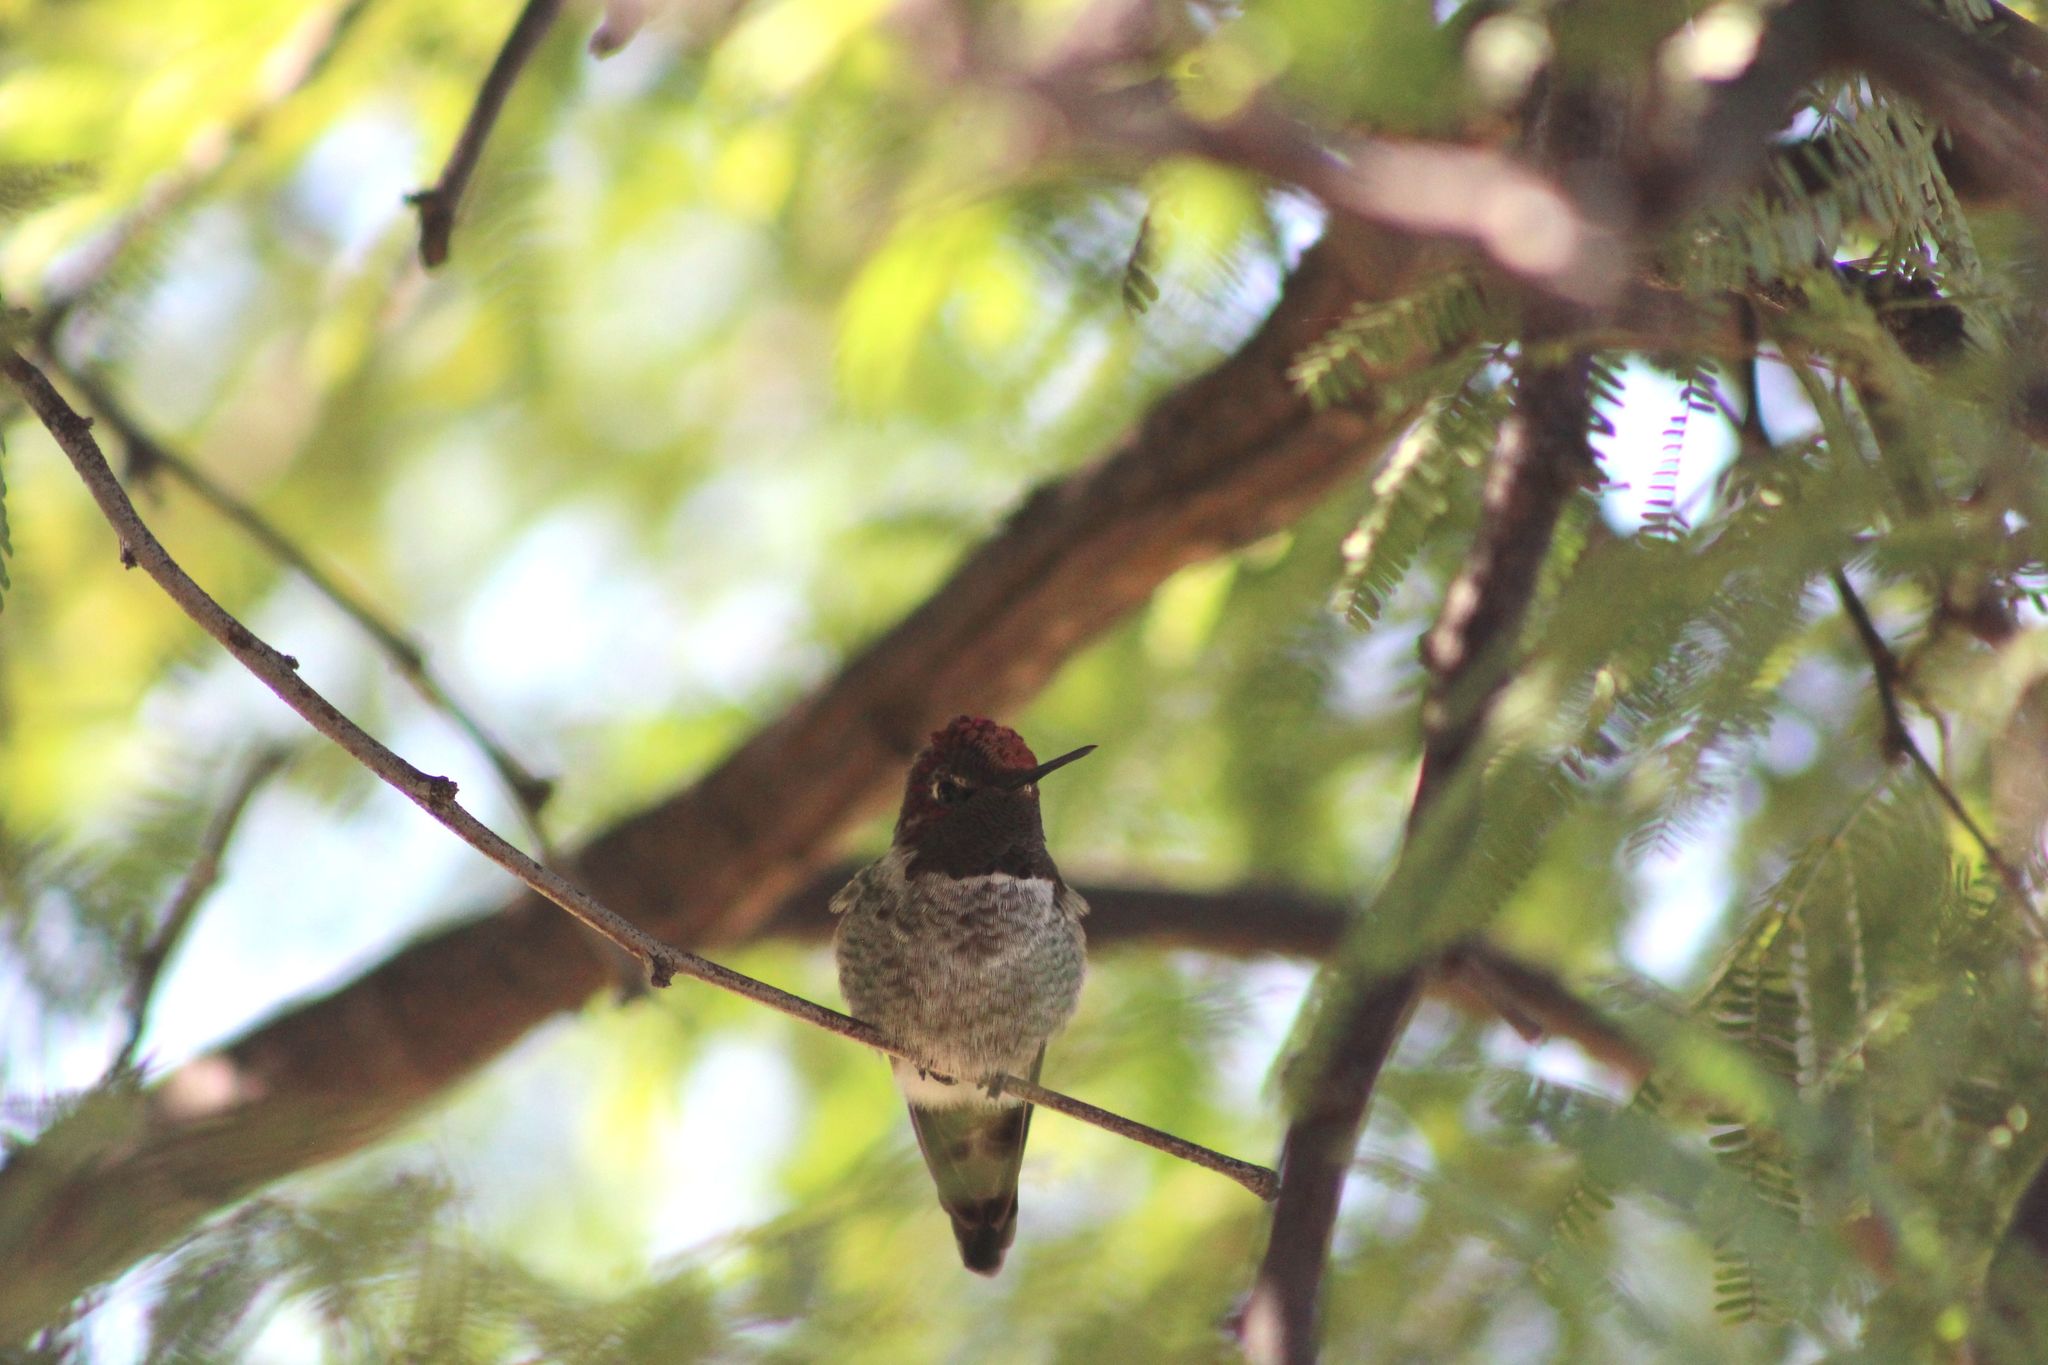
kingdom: Animalia
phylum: Chordata
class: Aves
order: Apodiformes
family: Trochilidae
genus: Calypte
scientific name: Calypte anna
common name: Anna's hummingbird
